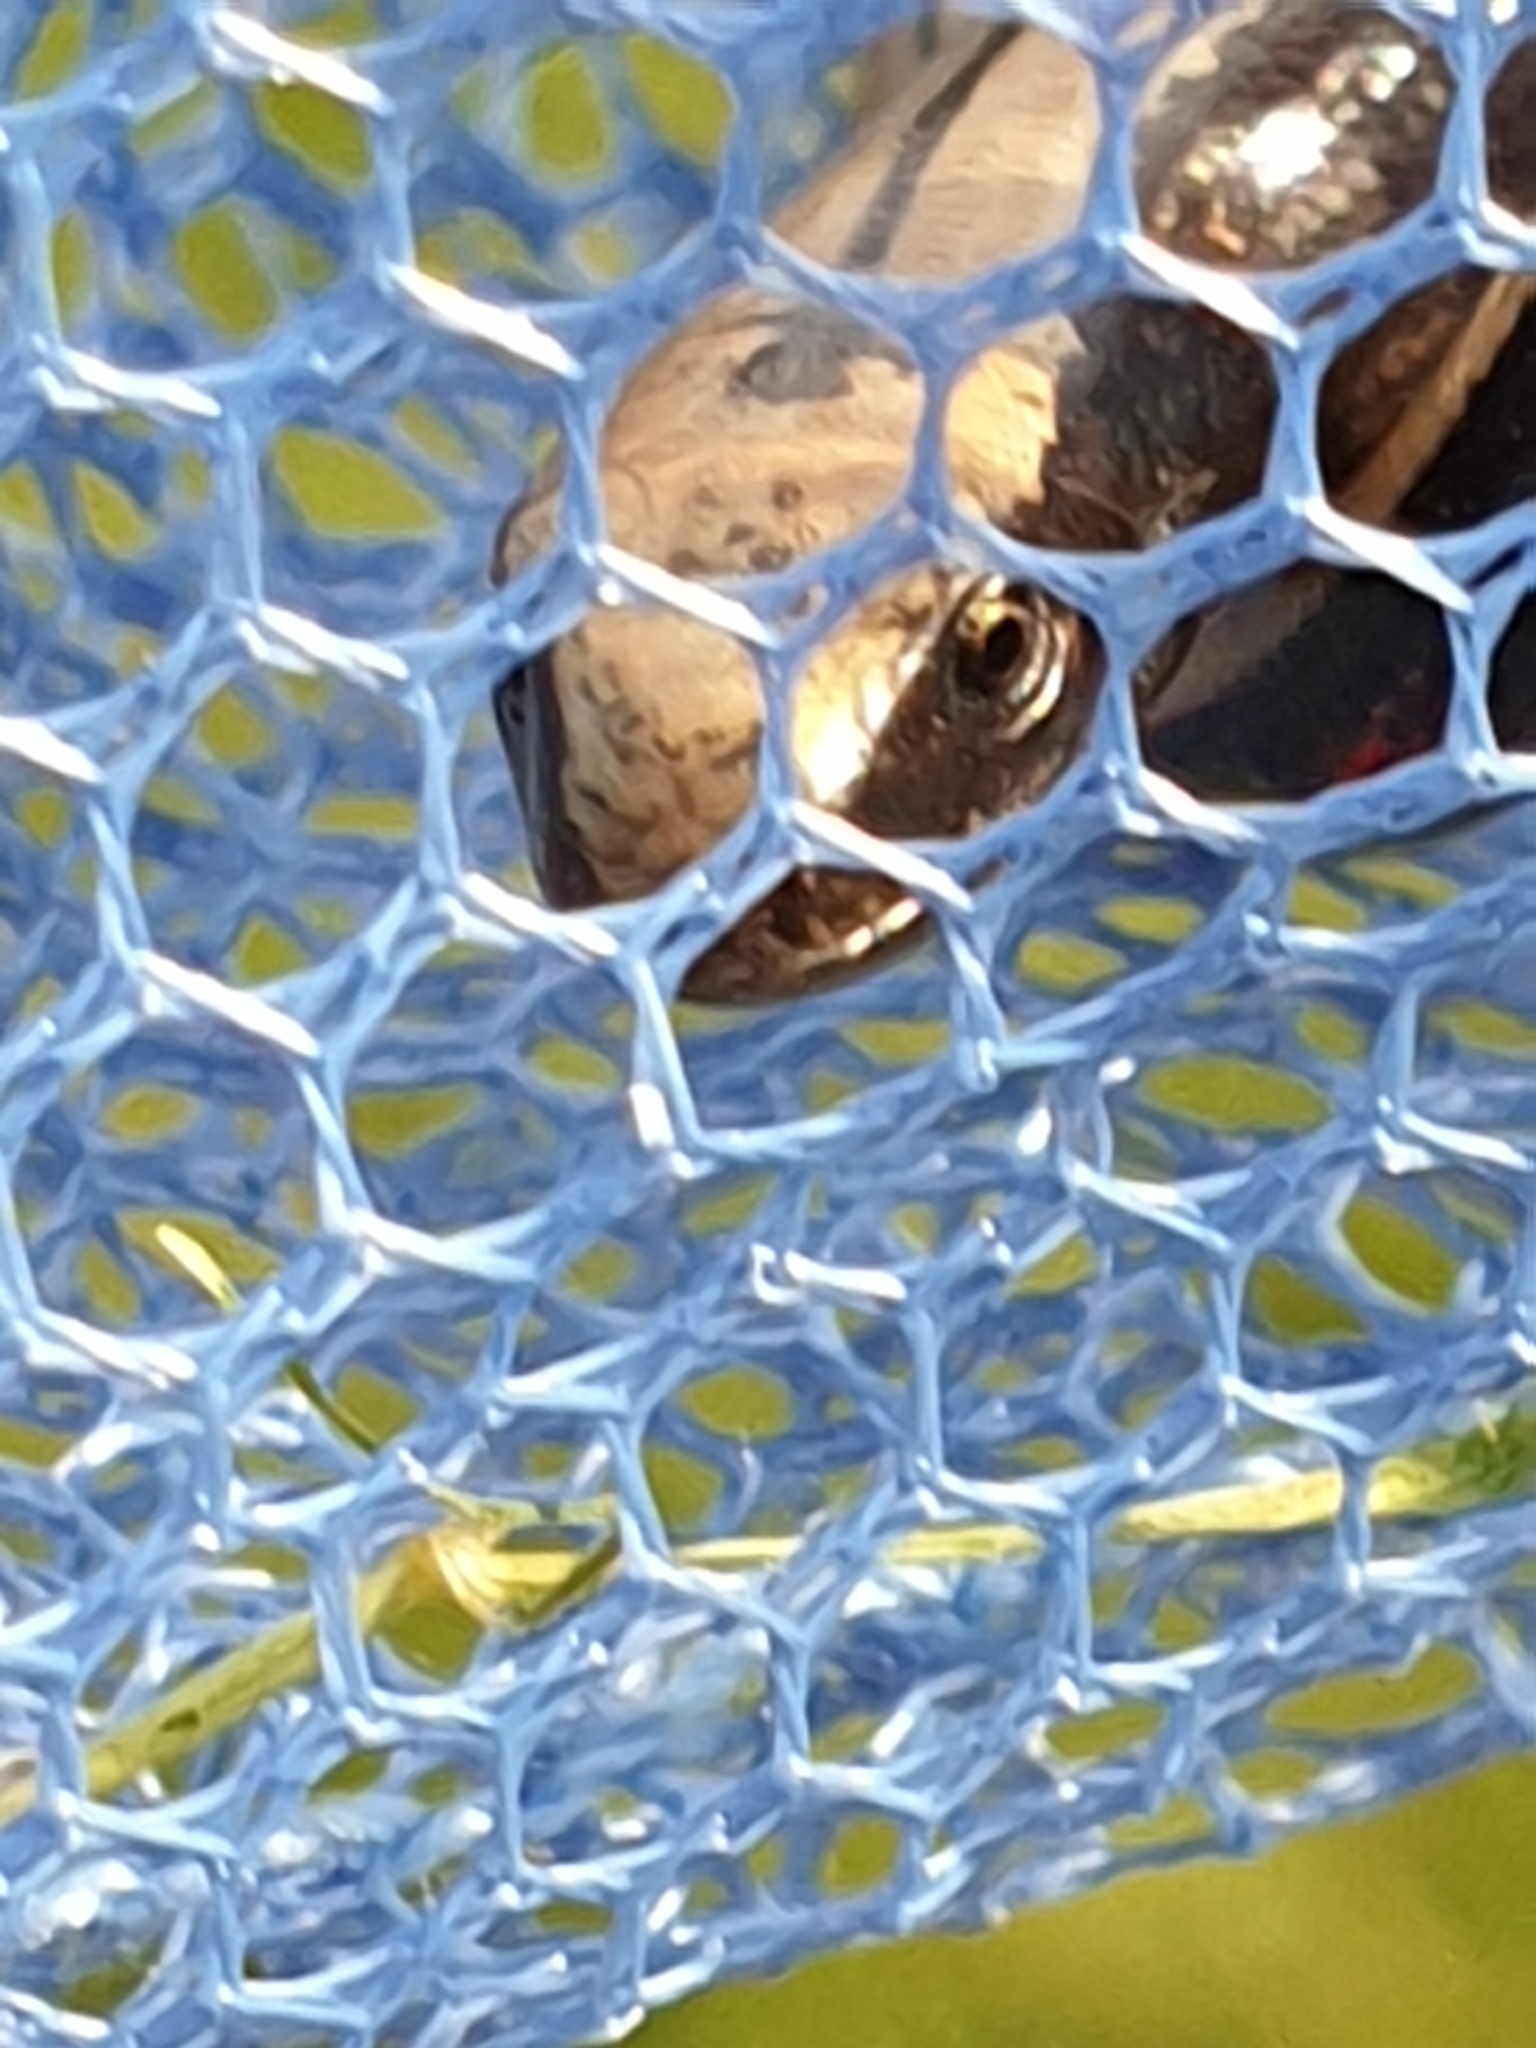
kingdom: Animalia
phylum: Chordata
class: Squamata
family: Anguidae
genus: Anguis
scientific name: Anguis fragilis
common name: Slow worm
